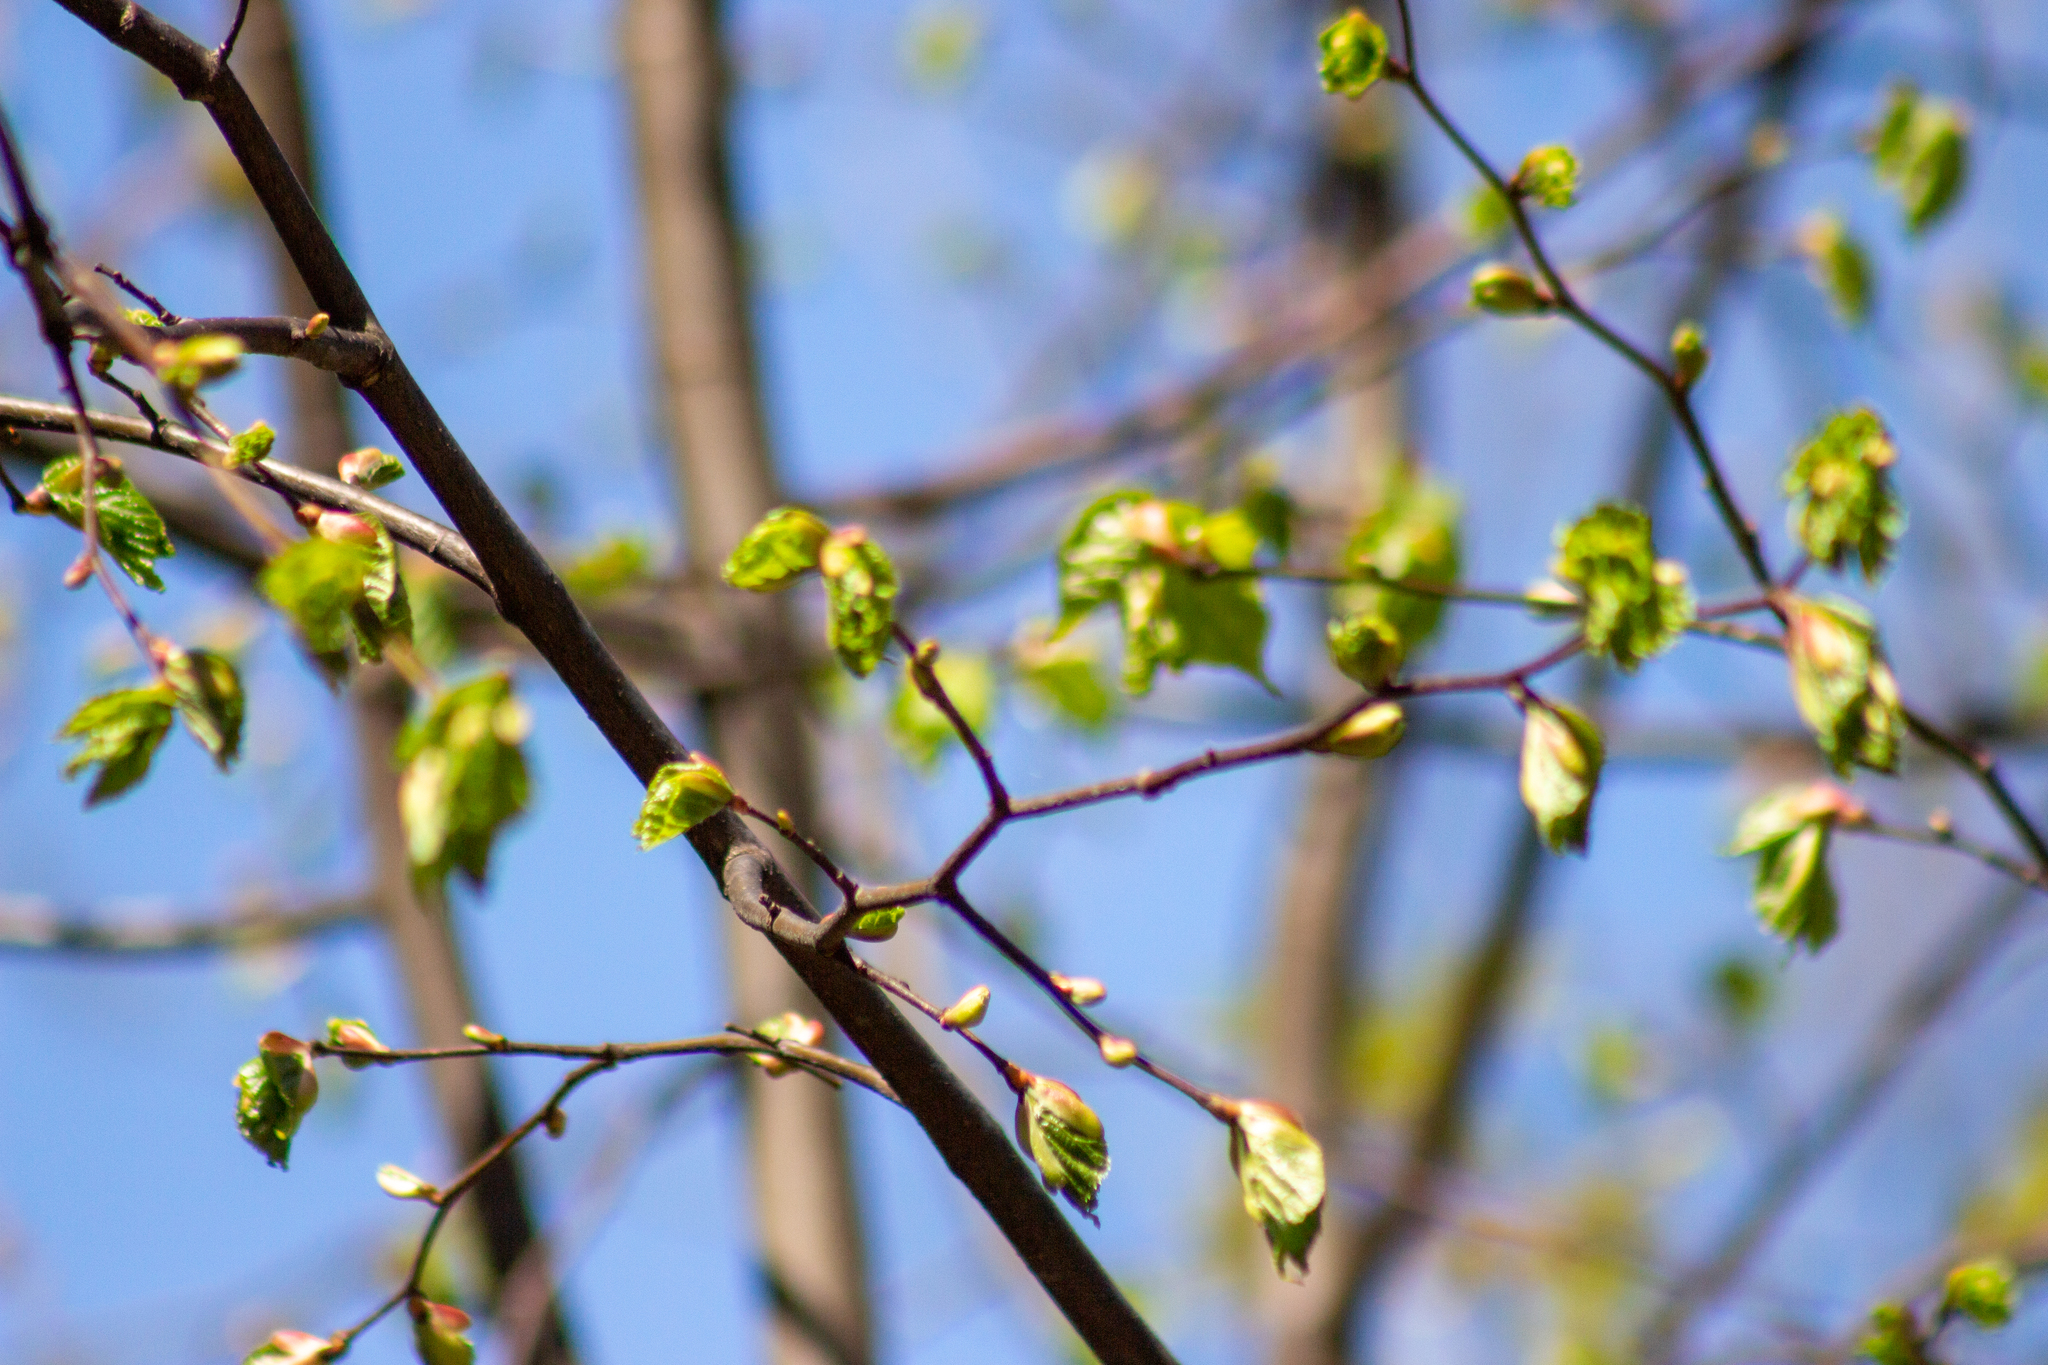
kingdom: Plantae
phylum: Tracheophyta
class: Magnoliopsida
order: Malvales
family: Malvaceae
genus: Tilia
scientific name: Tilia cordata
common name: Small-leaved lime
